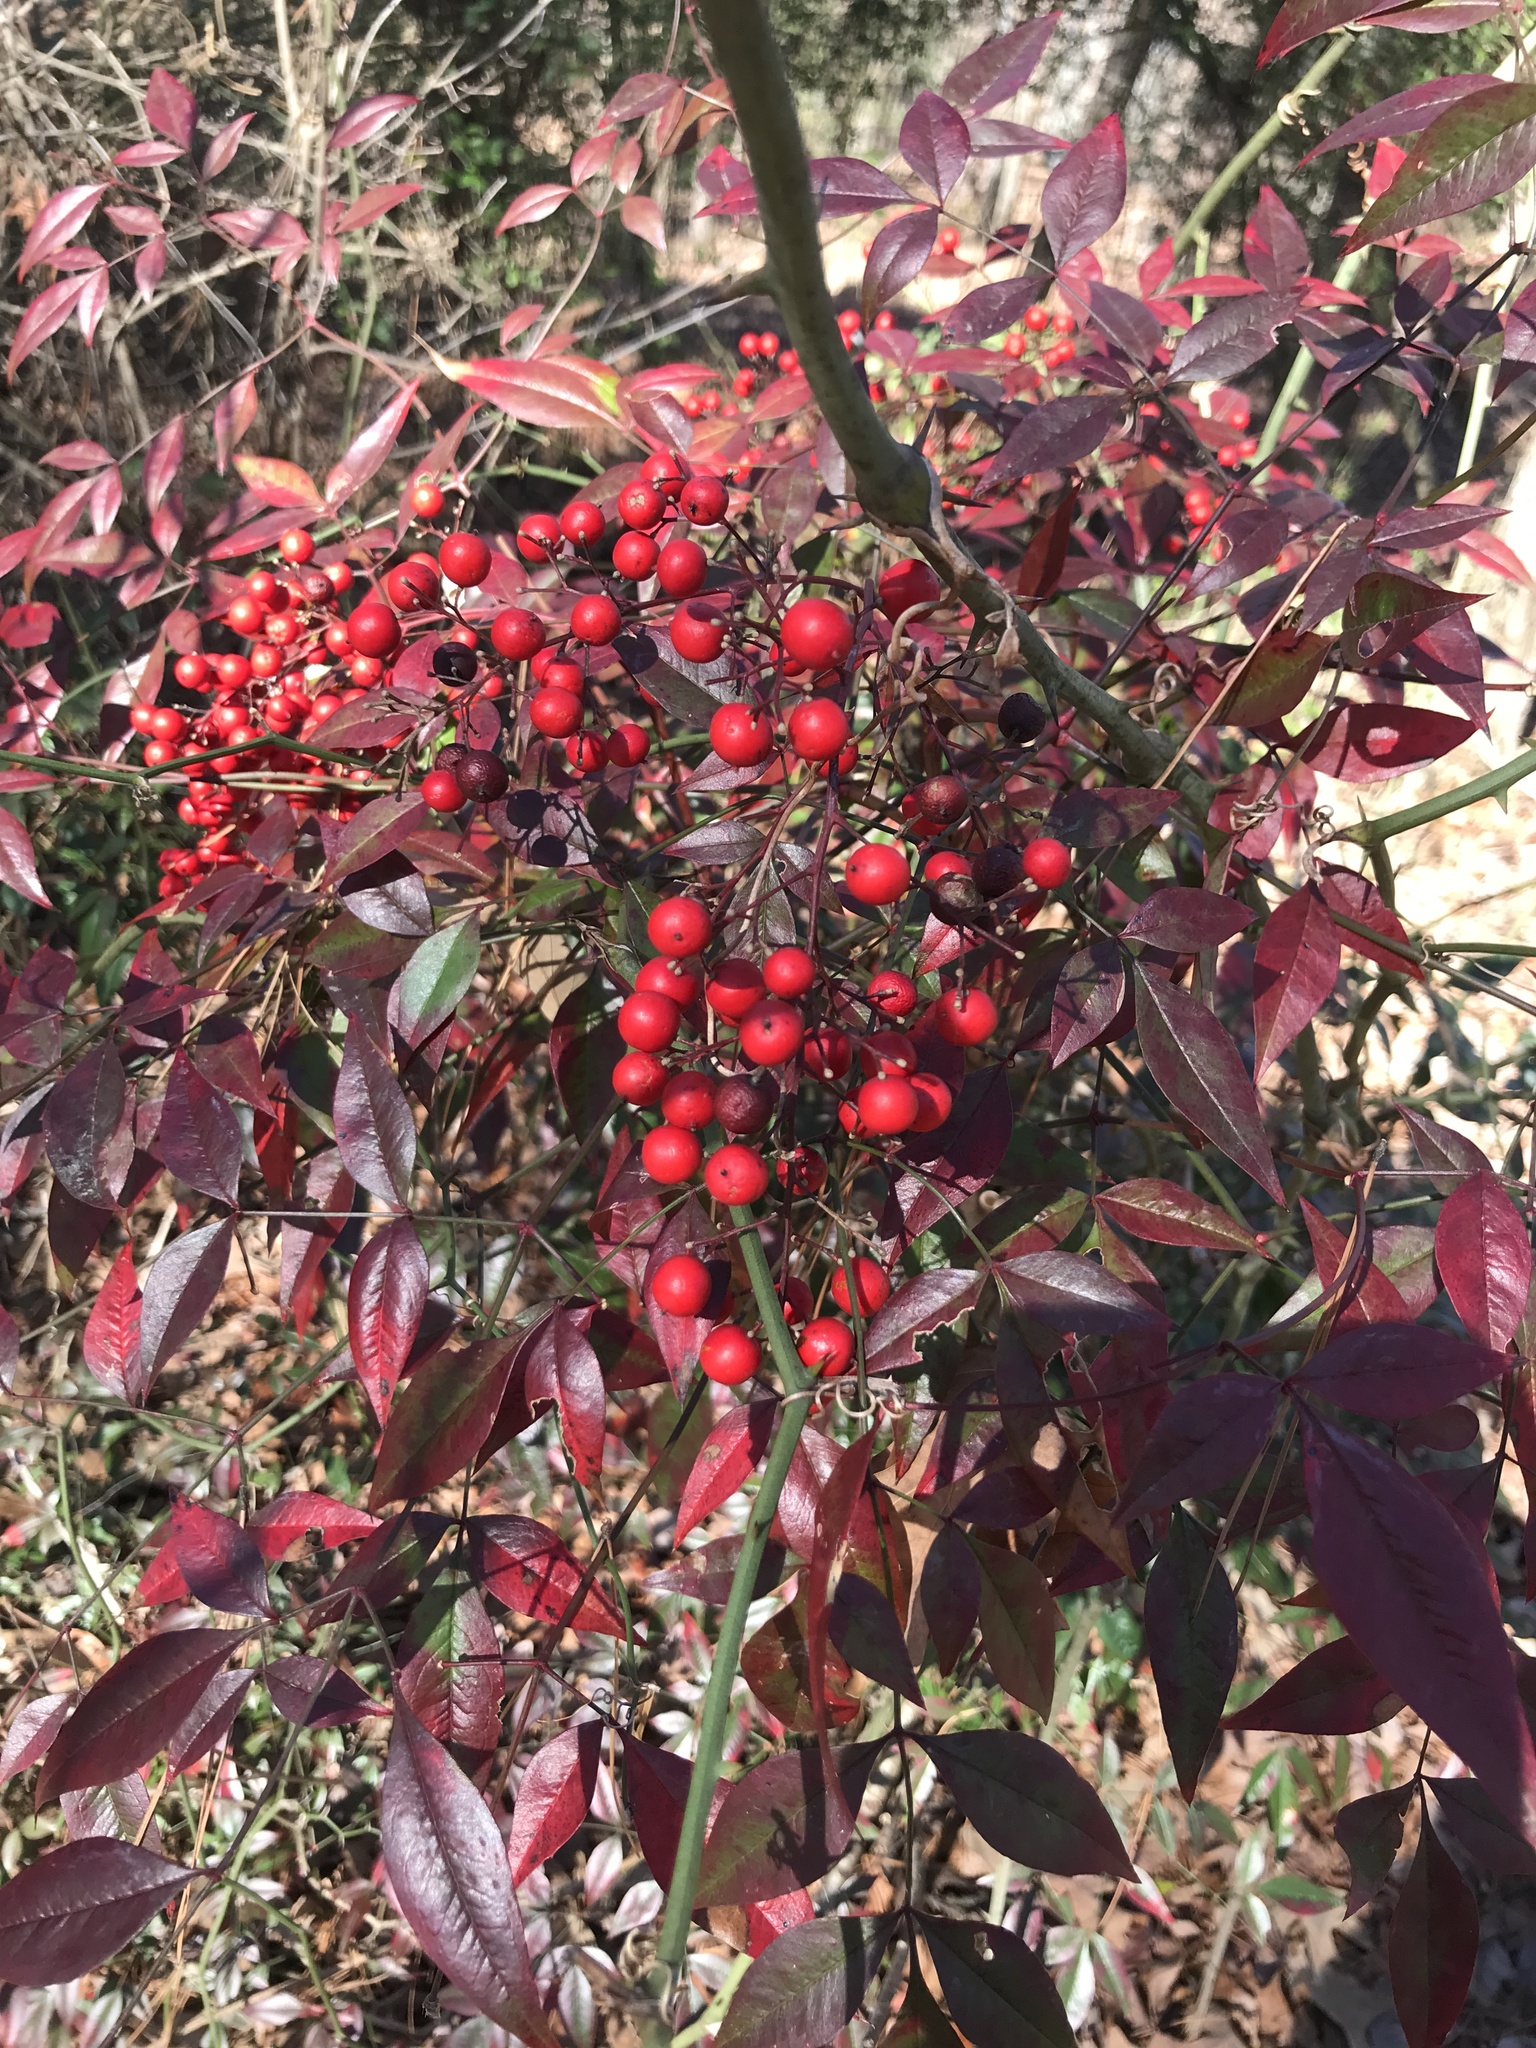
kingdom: Plantae
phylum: Tracheophyta
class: Magnoliopsida
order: Ranunculales
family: Berberidaceae
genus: Nandina
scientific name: Nandina domestica
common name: Sacred bamboo
